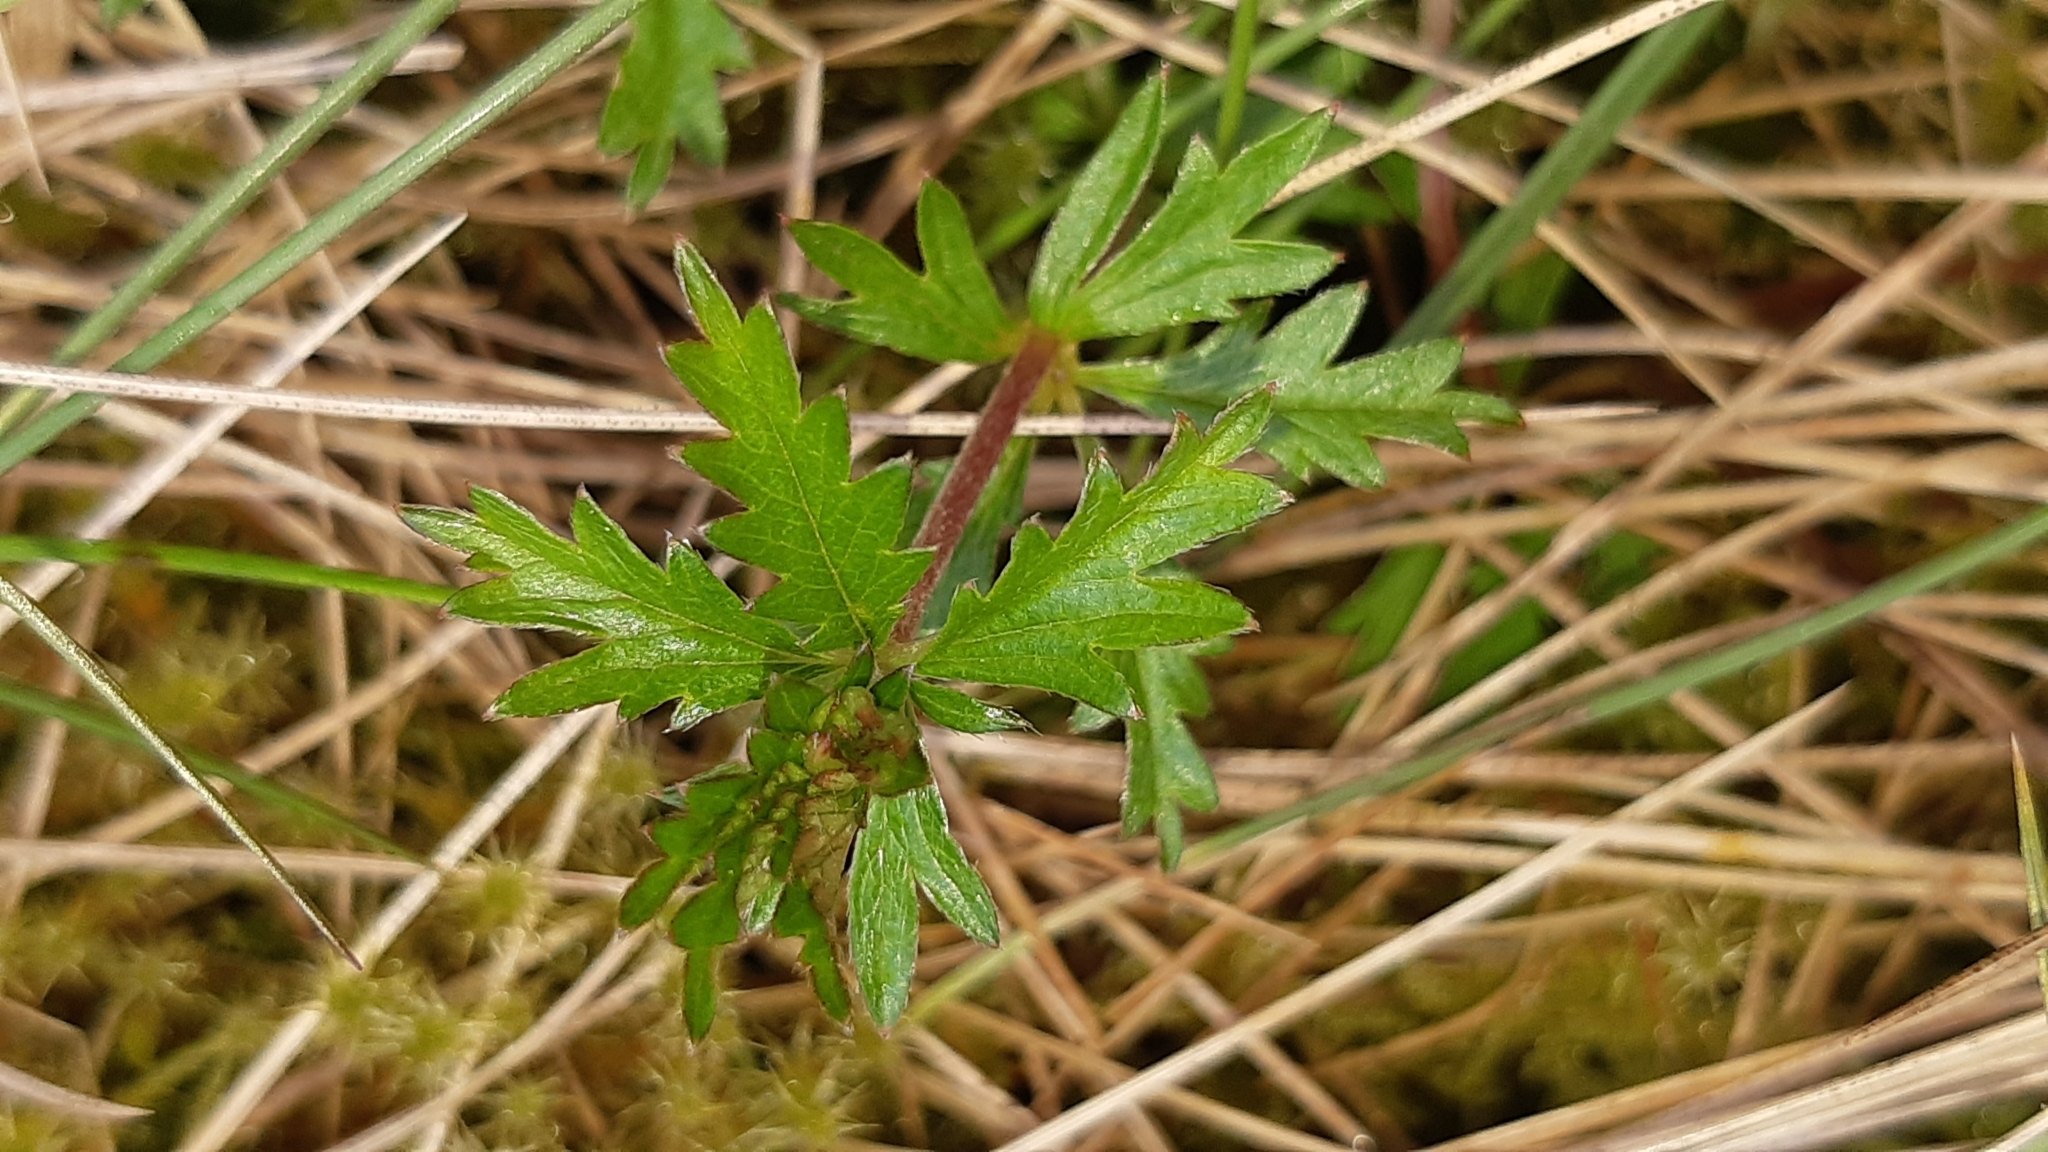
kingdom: Plantae
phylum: Tracheophyta
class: Magnoliopsida
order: Rosales
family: Rosaceae
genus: Potentilla
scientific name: Potentilla erecta
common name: Tormentil
